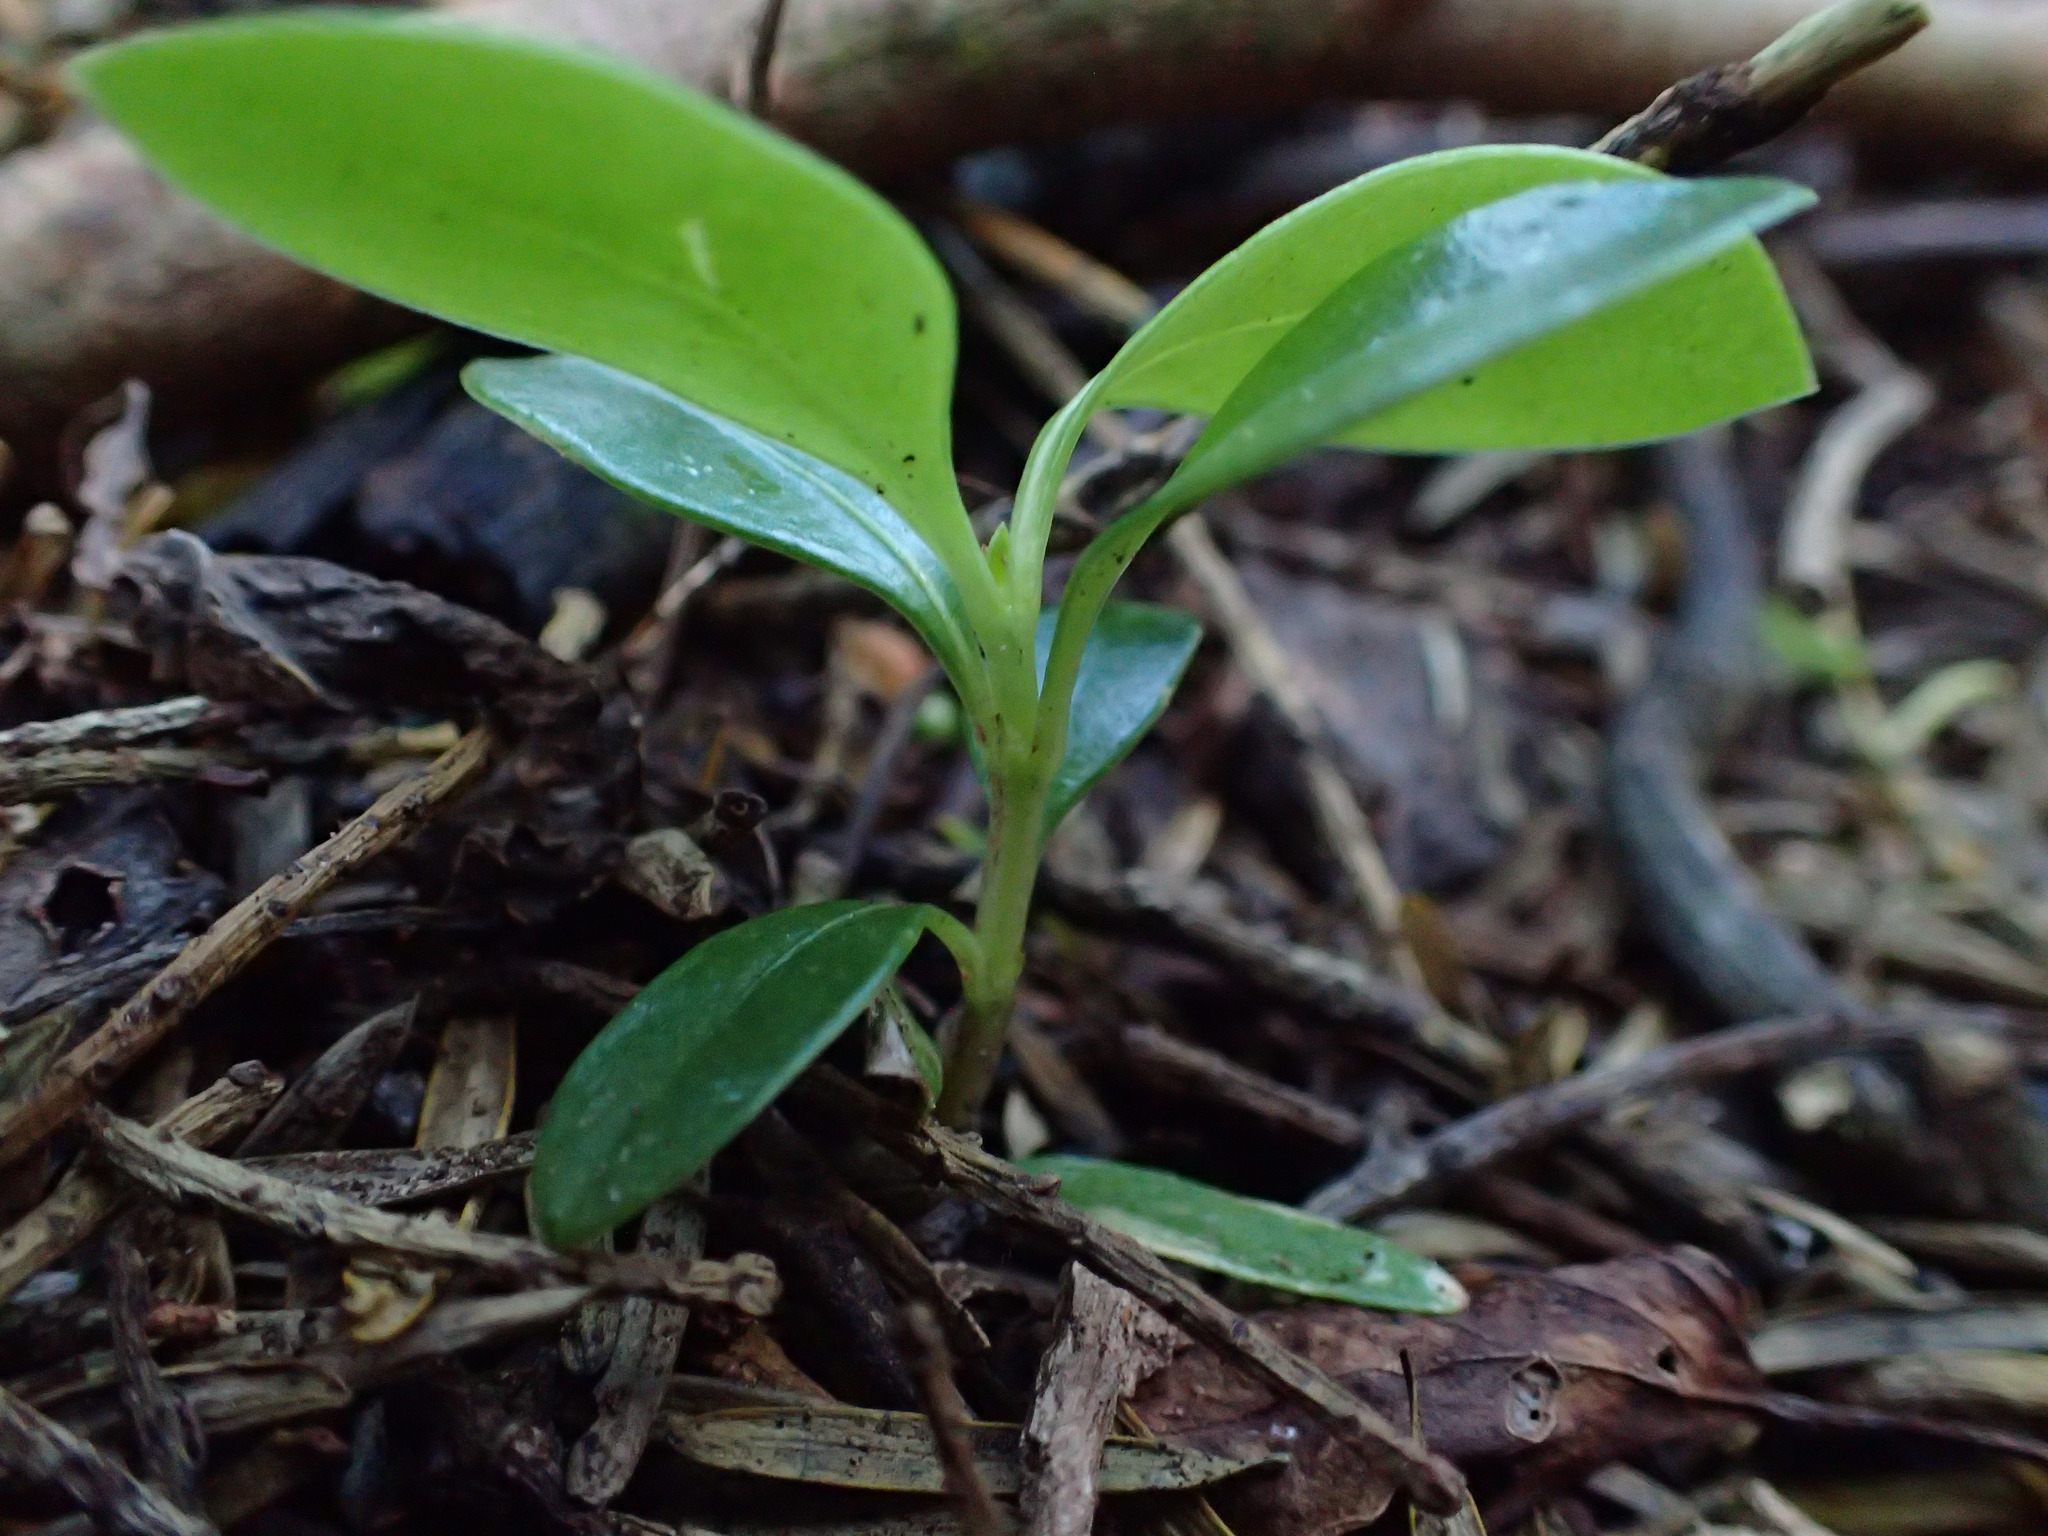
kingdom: Plantae
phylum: Tracheophyta
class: Magnoliopsida
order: Gentianales
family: Rubiaceae
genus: Coprosma
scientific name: Coprosma lucida
